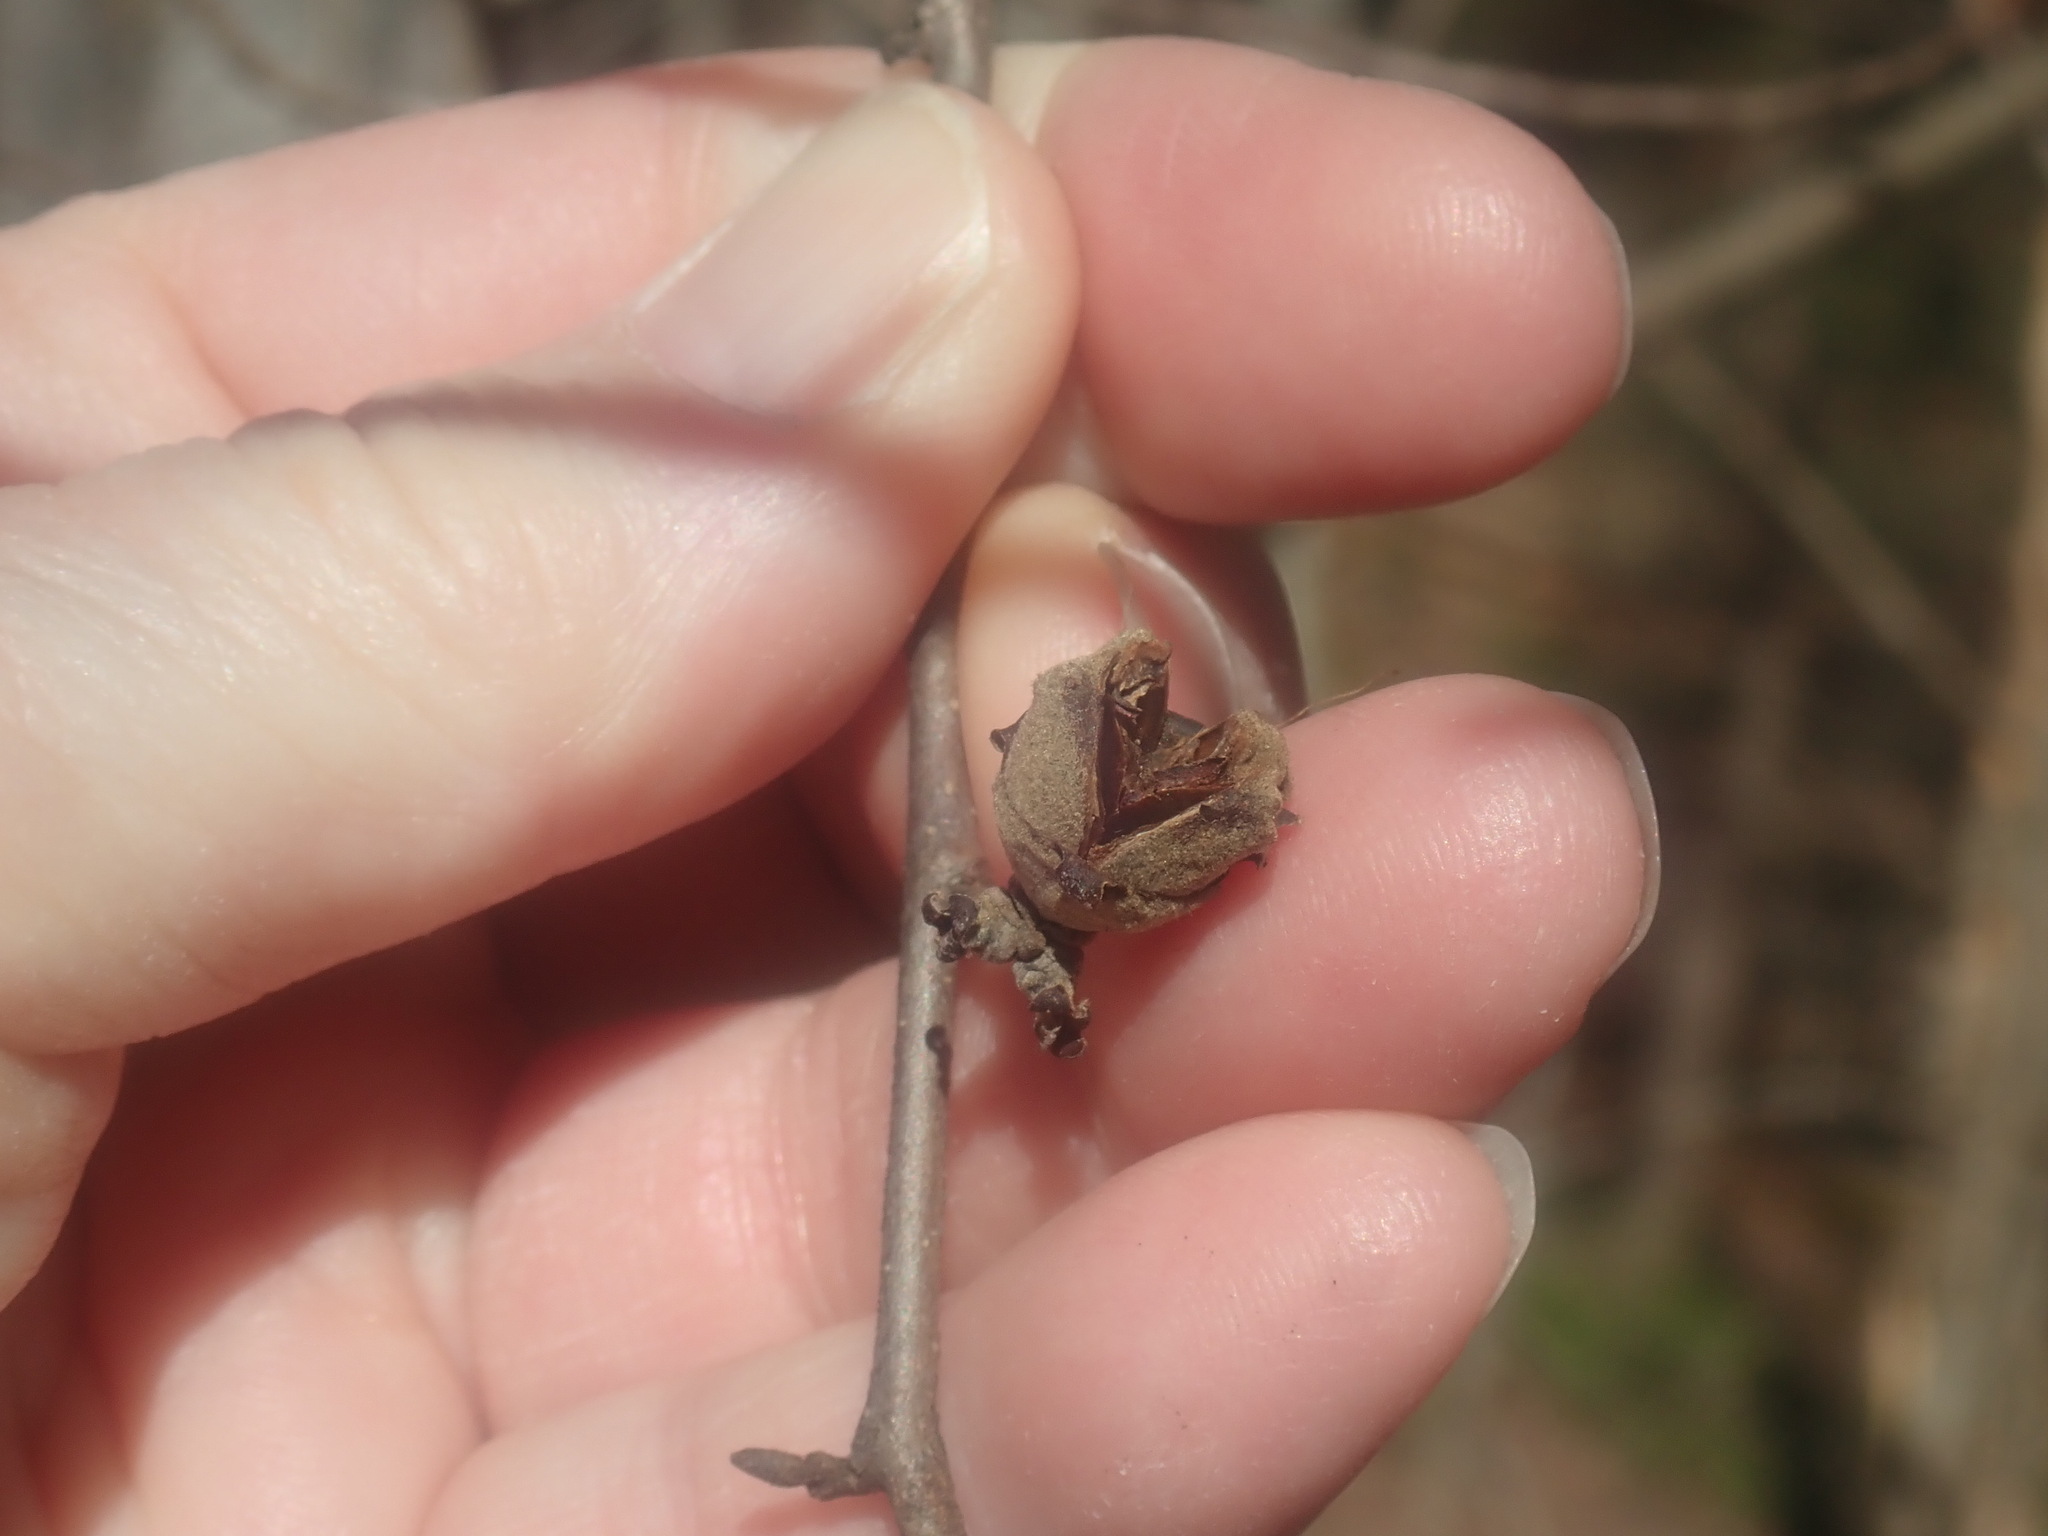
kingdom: Plantae
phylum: Tracheophyta
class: Magnoliopsida
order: Saxifragales
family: Hamamelidaceae
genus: Hamamelis
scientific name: Hamamelis virginiana
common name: Witch-hazel
